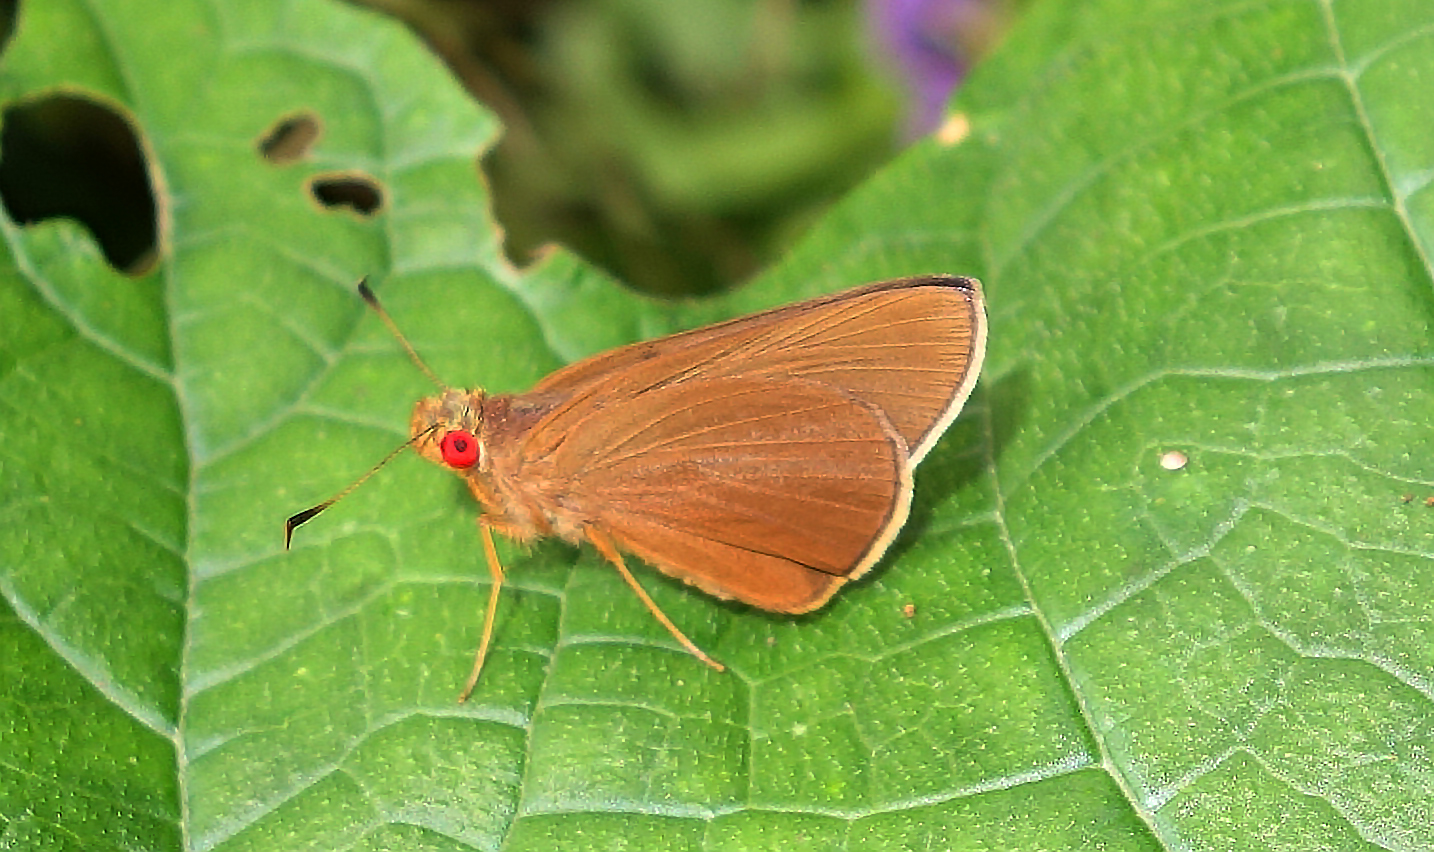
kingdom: Animalia
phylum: Arthropoda
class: Insecta
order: Lepidoptera
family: Hesperiidae
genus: Matapa
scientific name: Matapa aria
